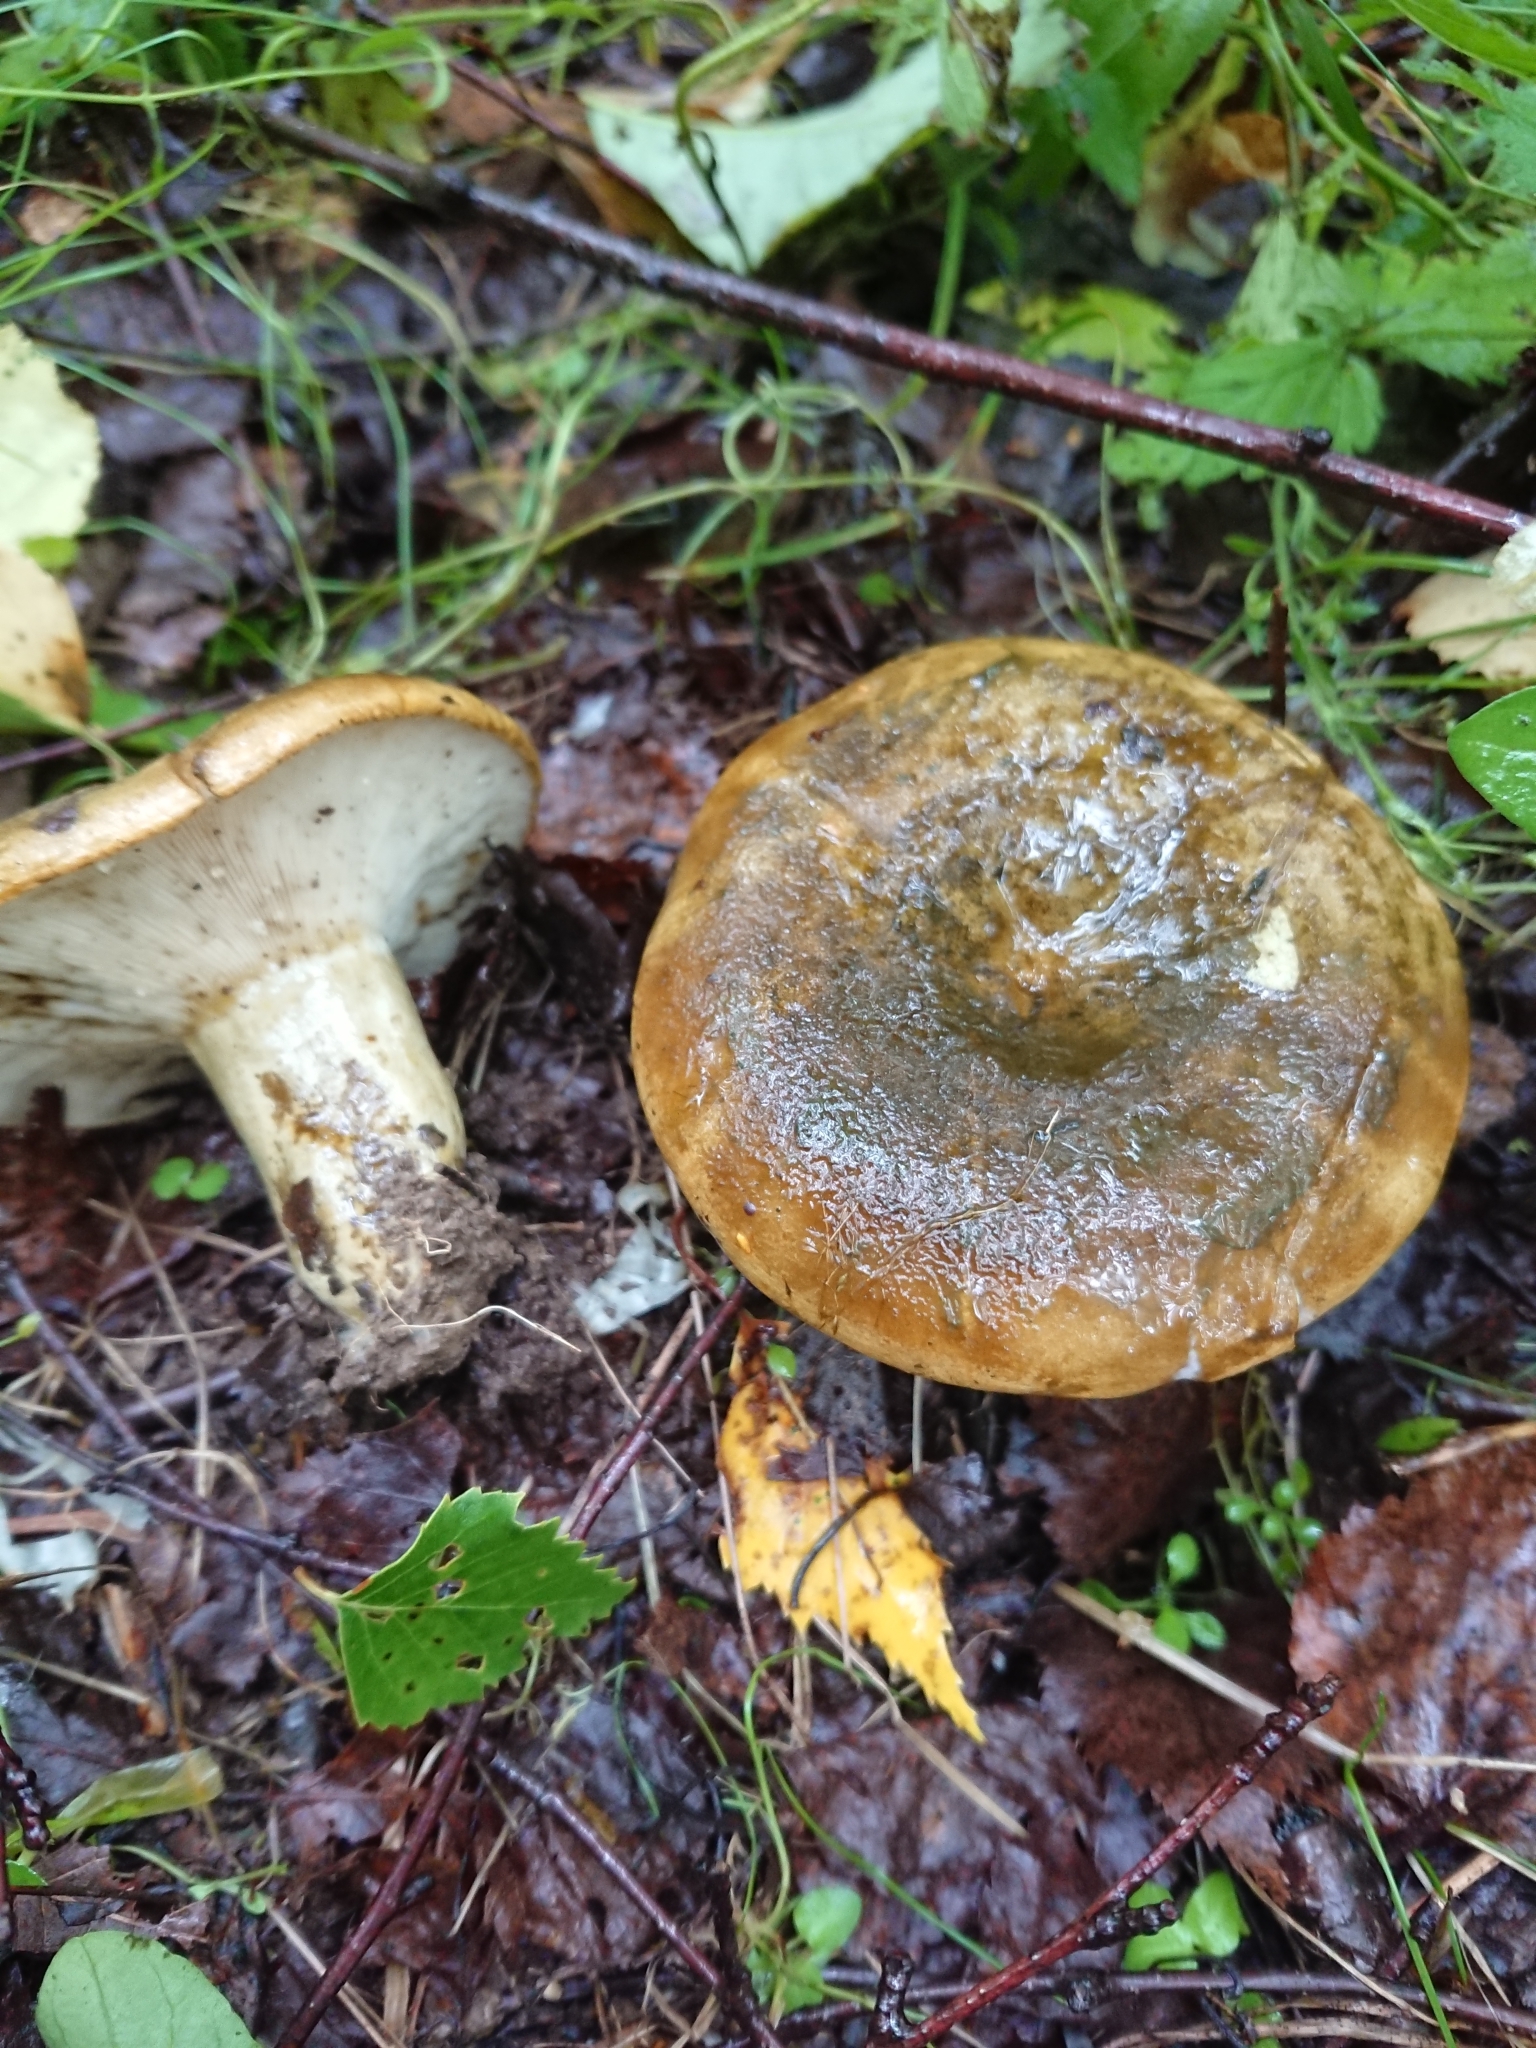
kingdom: Fungi
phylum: Basidiomycota
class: Agaricomycetes
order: Russulales
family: Russulaceae
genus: Lactarius
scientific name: Lactarius turpis
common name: Ugly milk-cap
